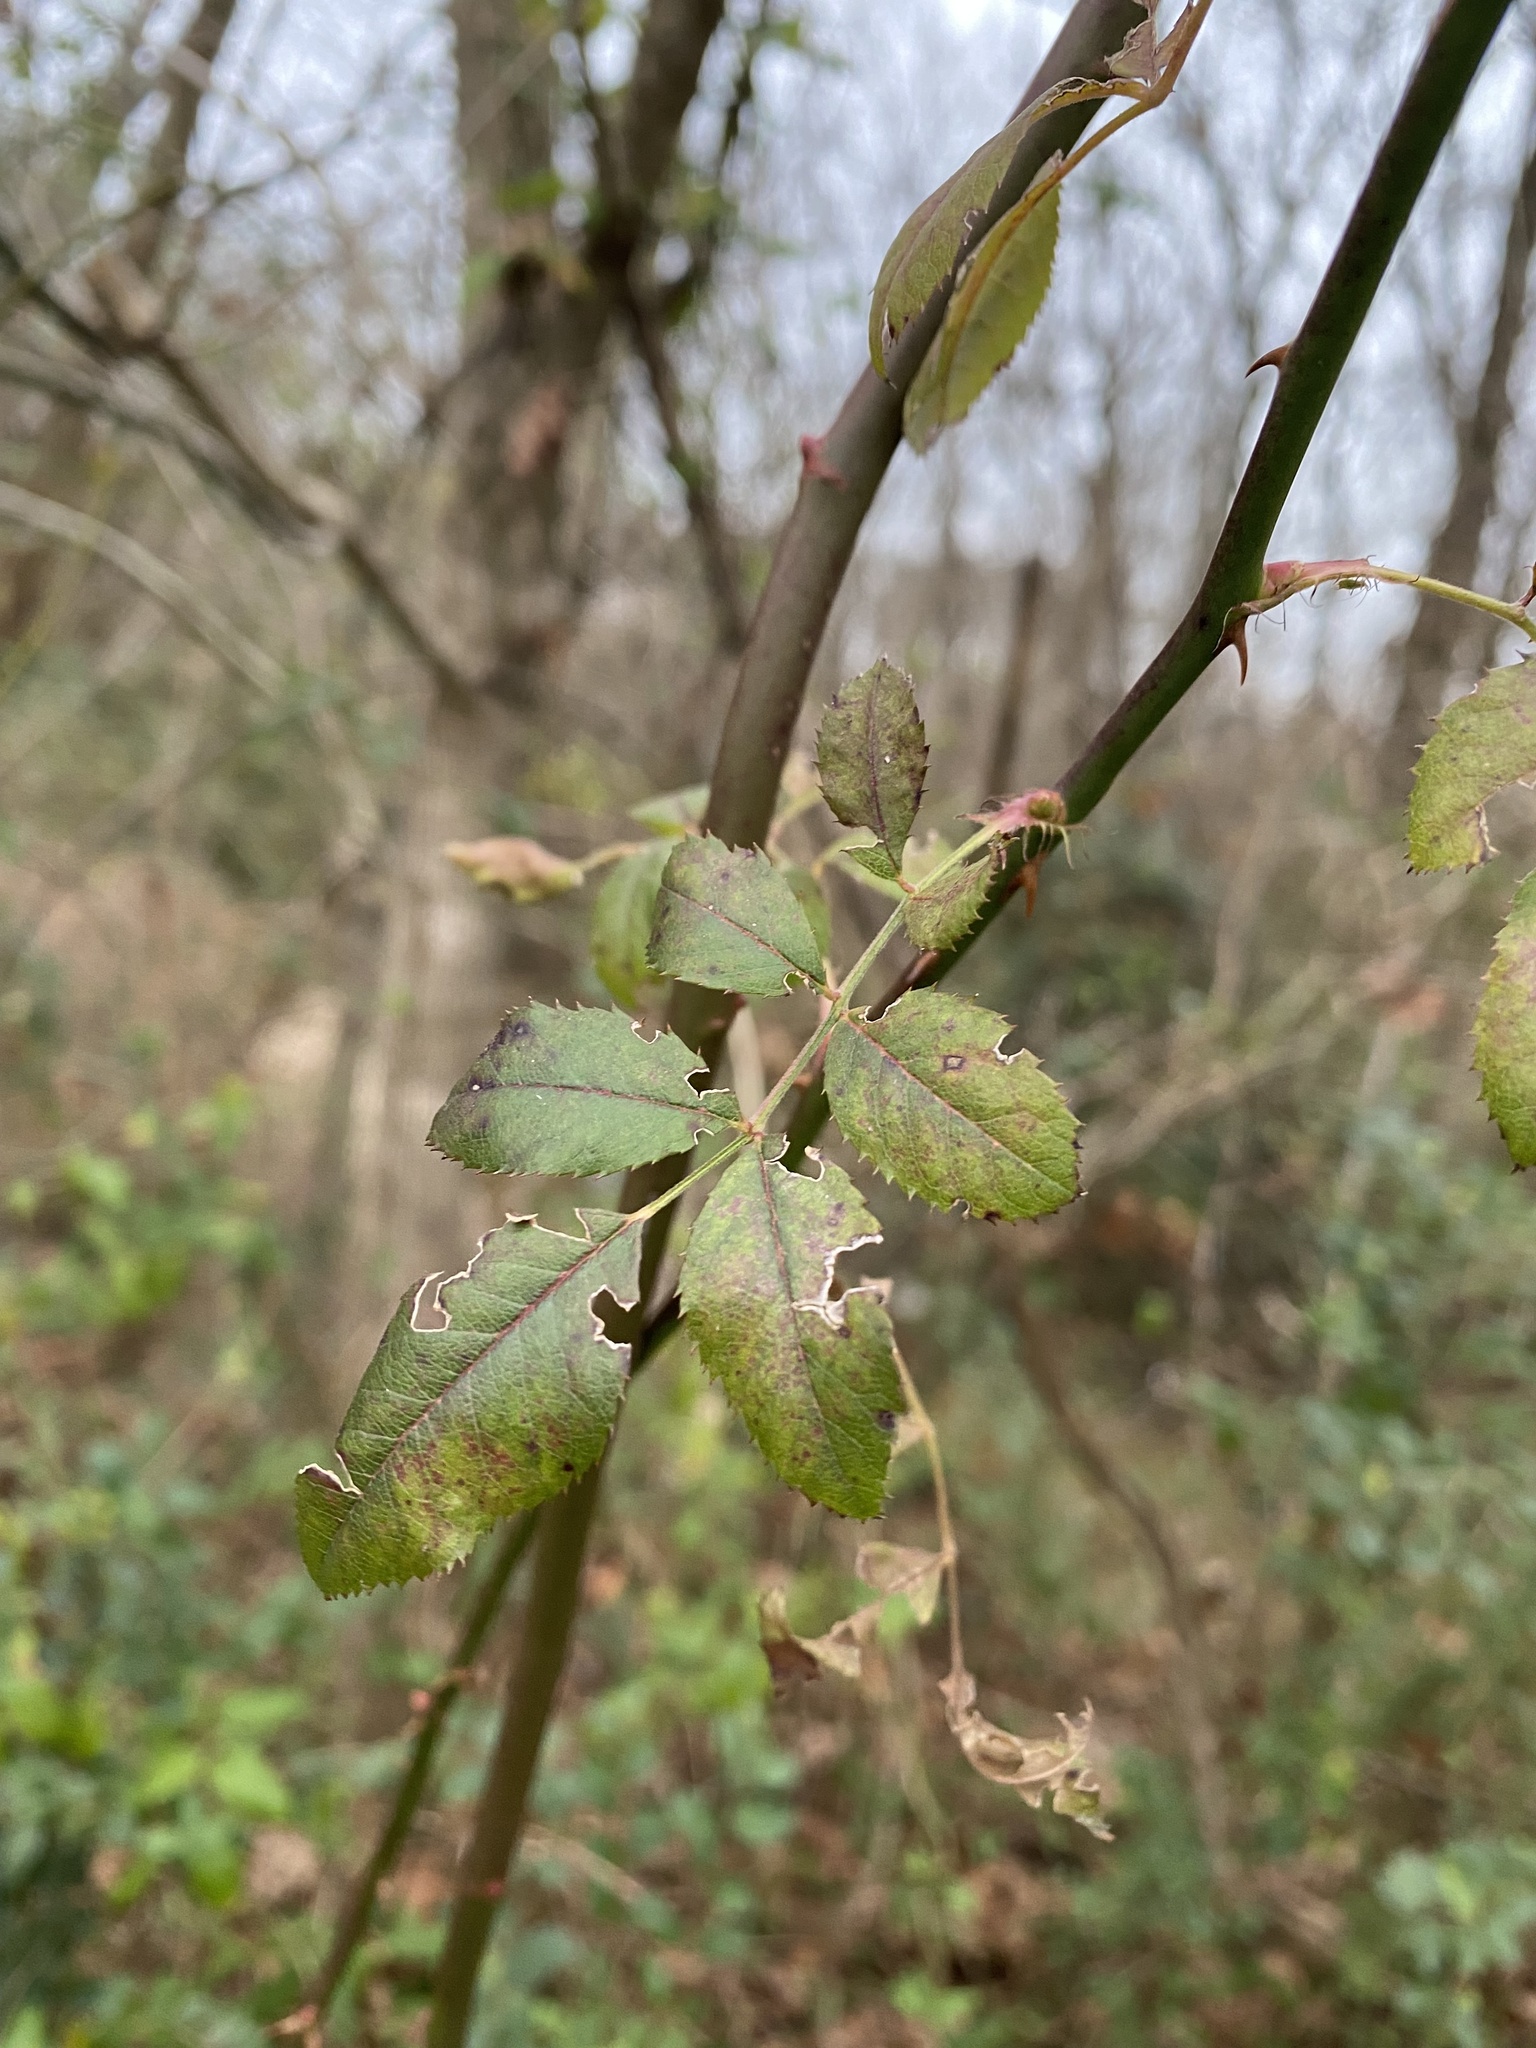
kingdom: Plantae
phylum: Tracheophyta
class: Magnoliopsida
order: Rosales
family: Rosaceae
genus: Rosa
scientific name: Rosa multiflora
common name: Multiflora rose
